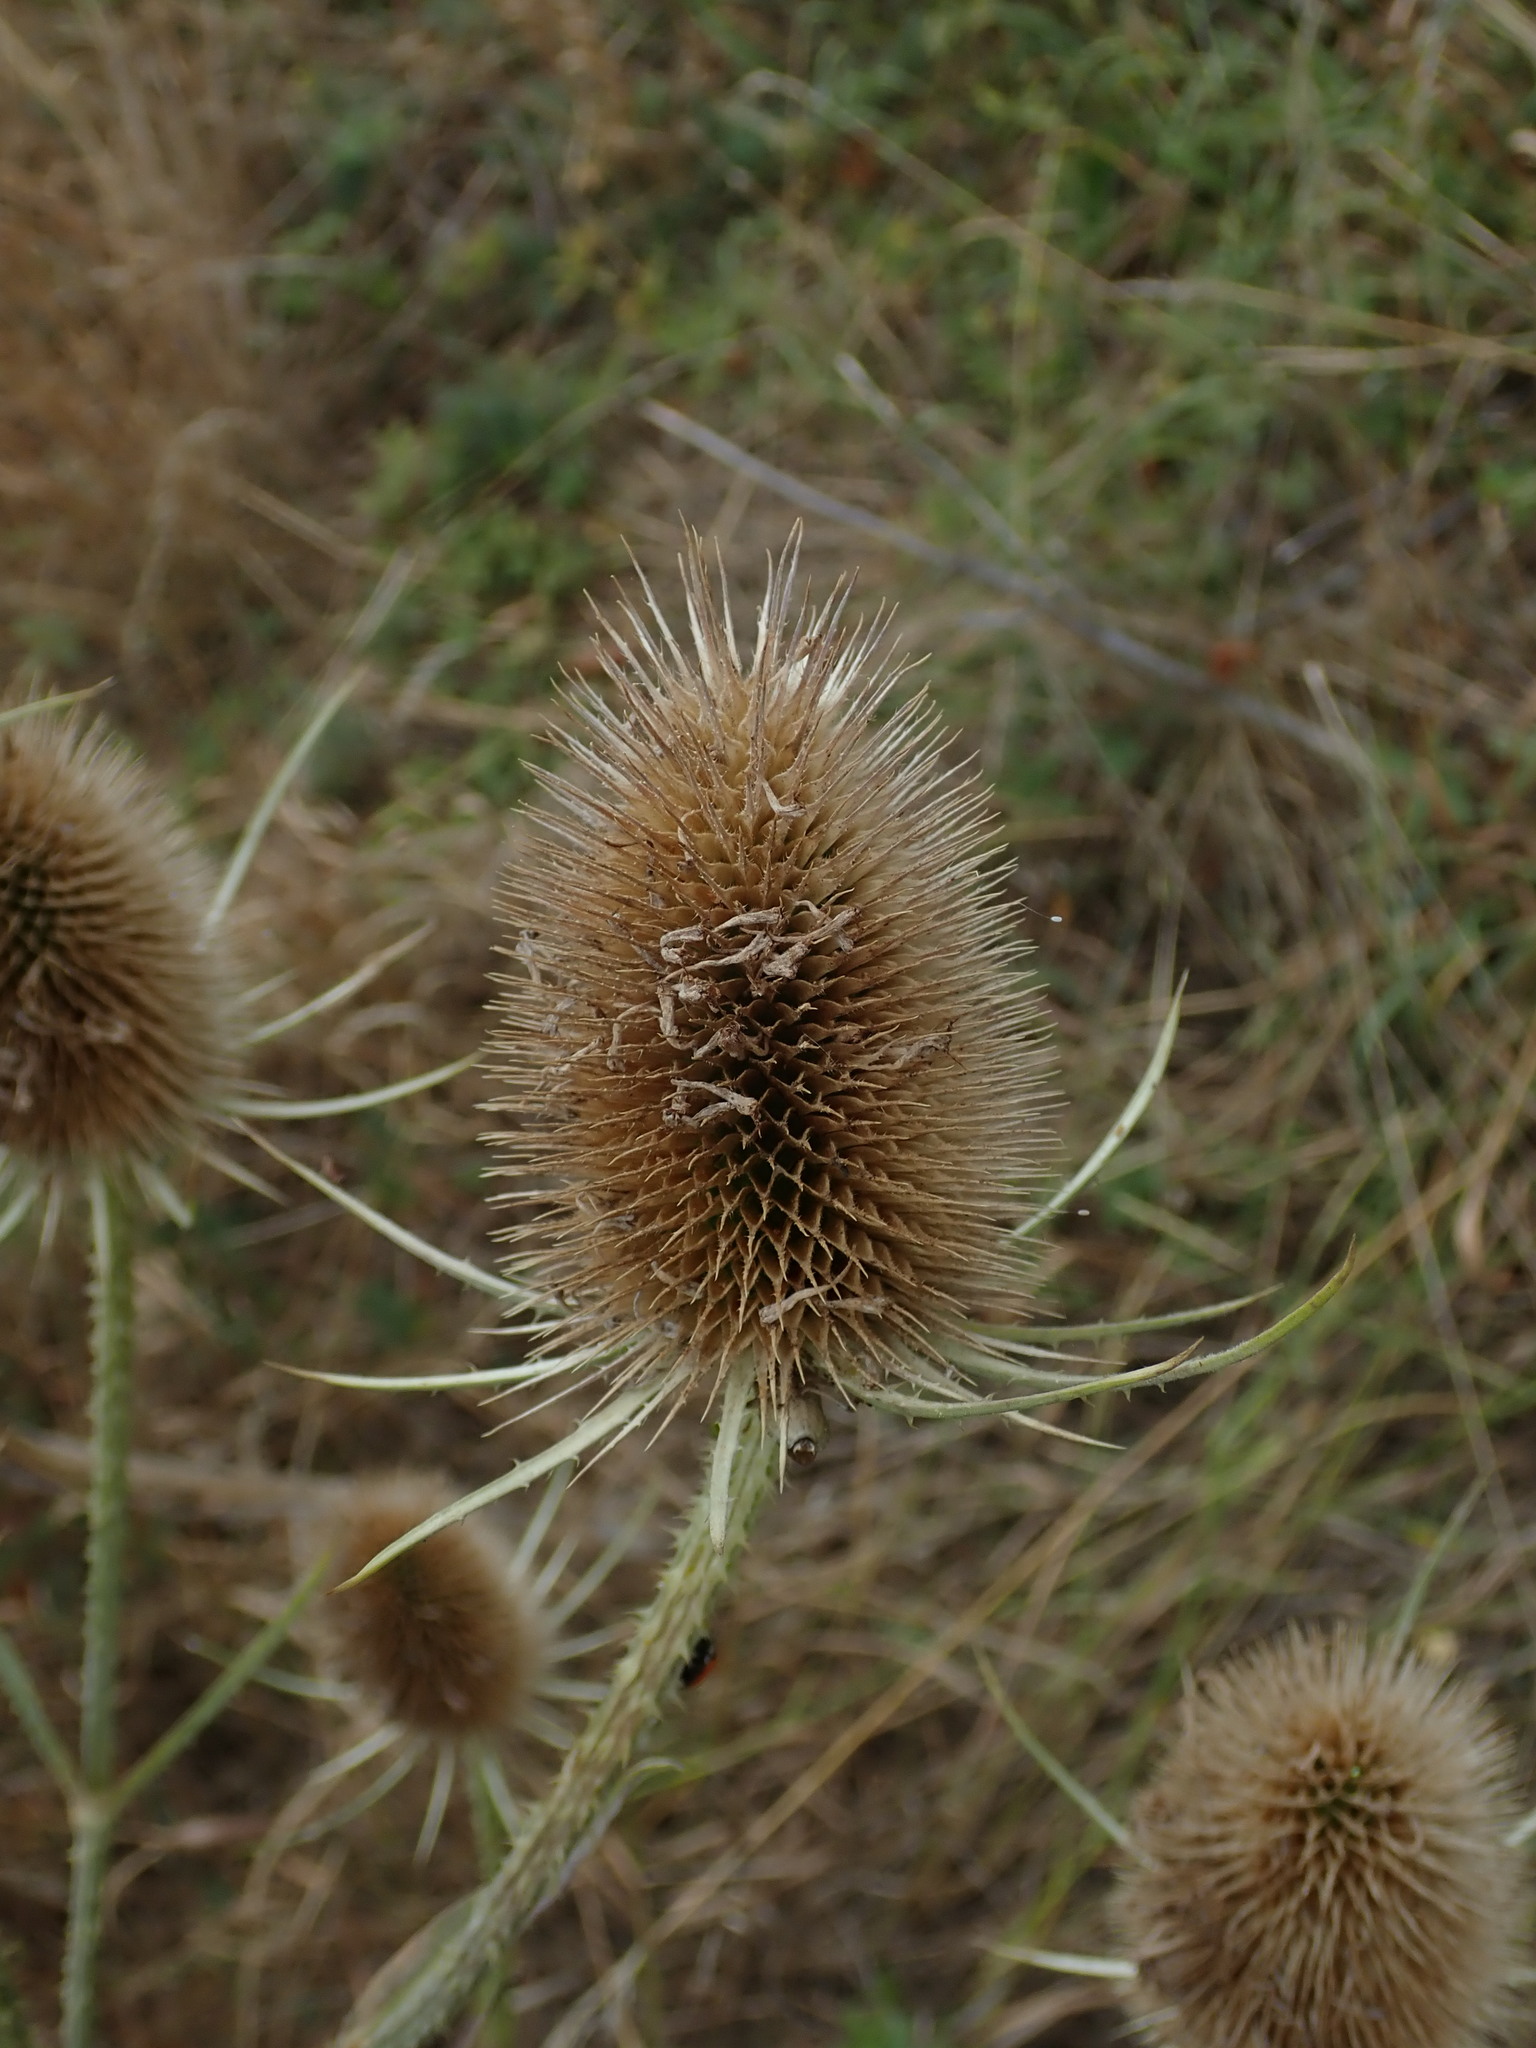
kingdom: Plantae
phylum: Tracheophyta
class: Magnoliopsida
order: Dipsacales
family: Caprifoliaceae
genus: Dipsacus
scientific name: Dipsacus fullonum
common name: Teasel
